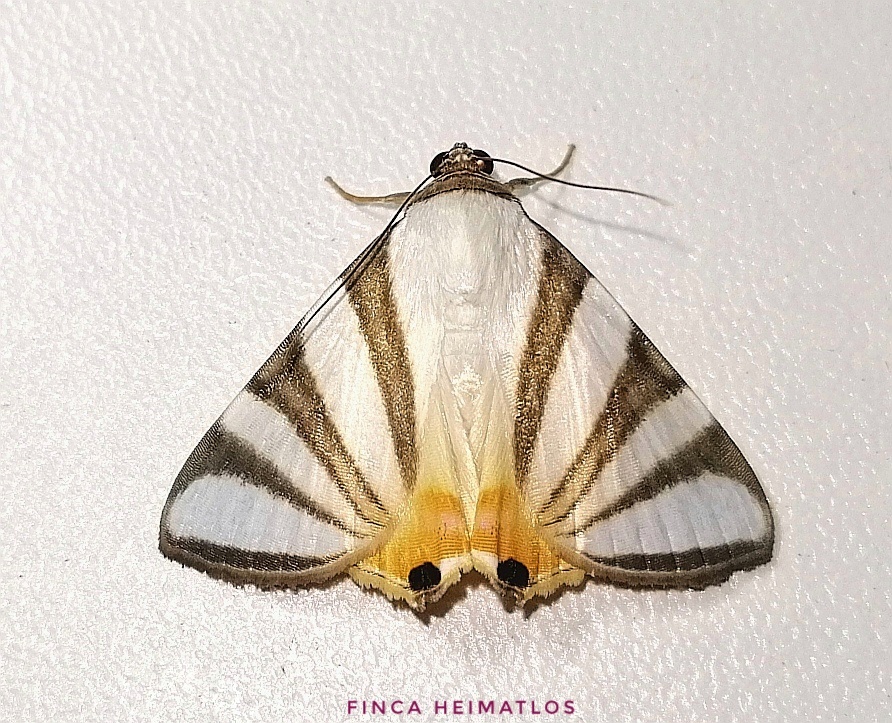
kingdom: Animalia
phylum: Arthropoda
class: Insecta
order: Lepidoptera
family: Erebidae
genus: Eulepidotis
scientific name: Eulepidotis preclara
